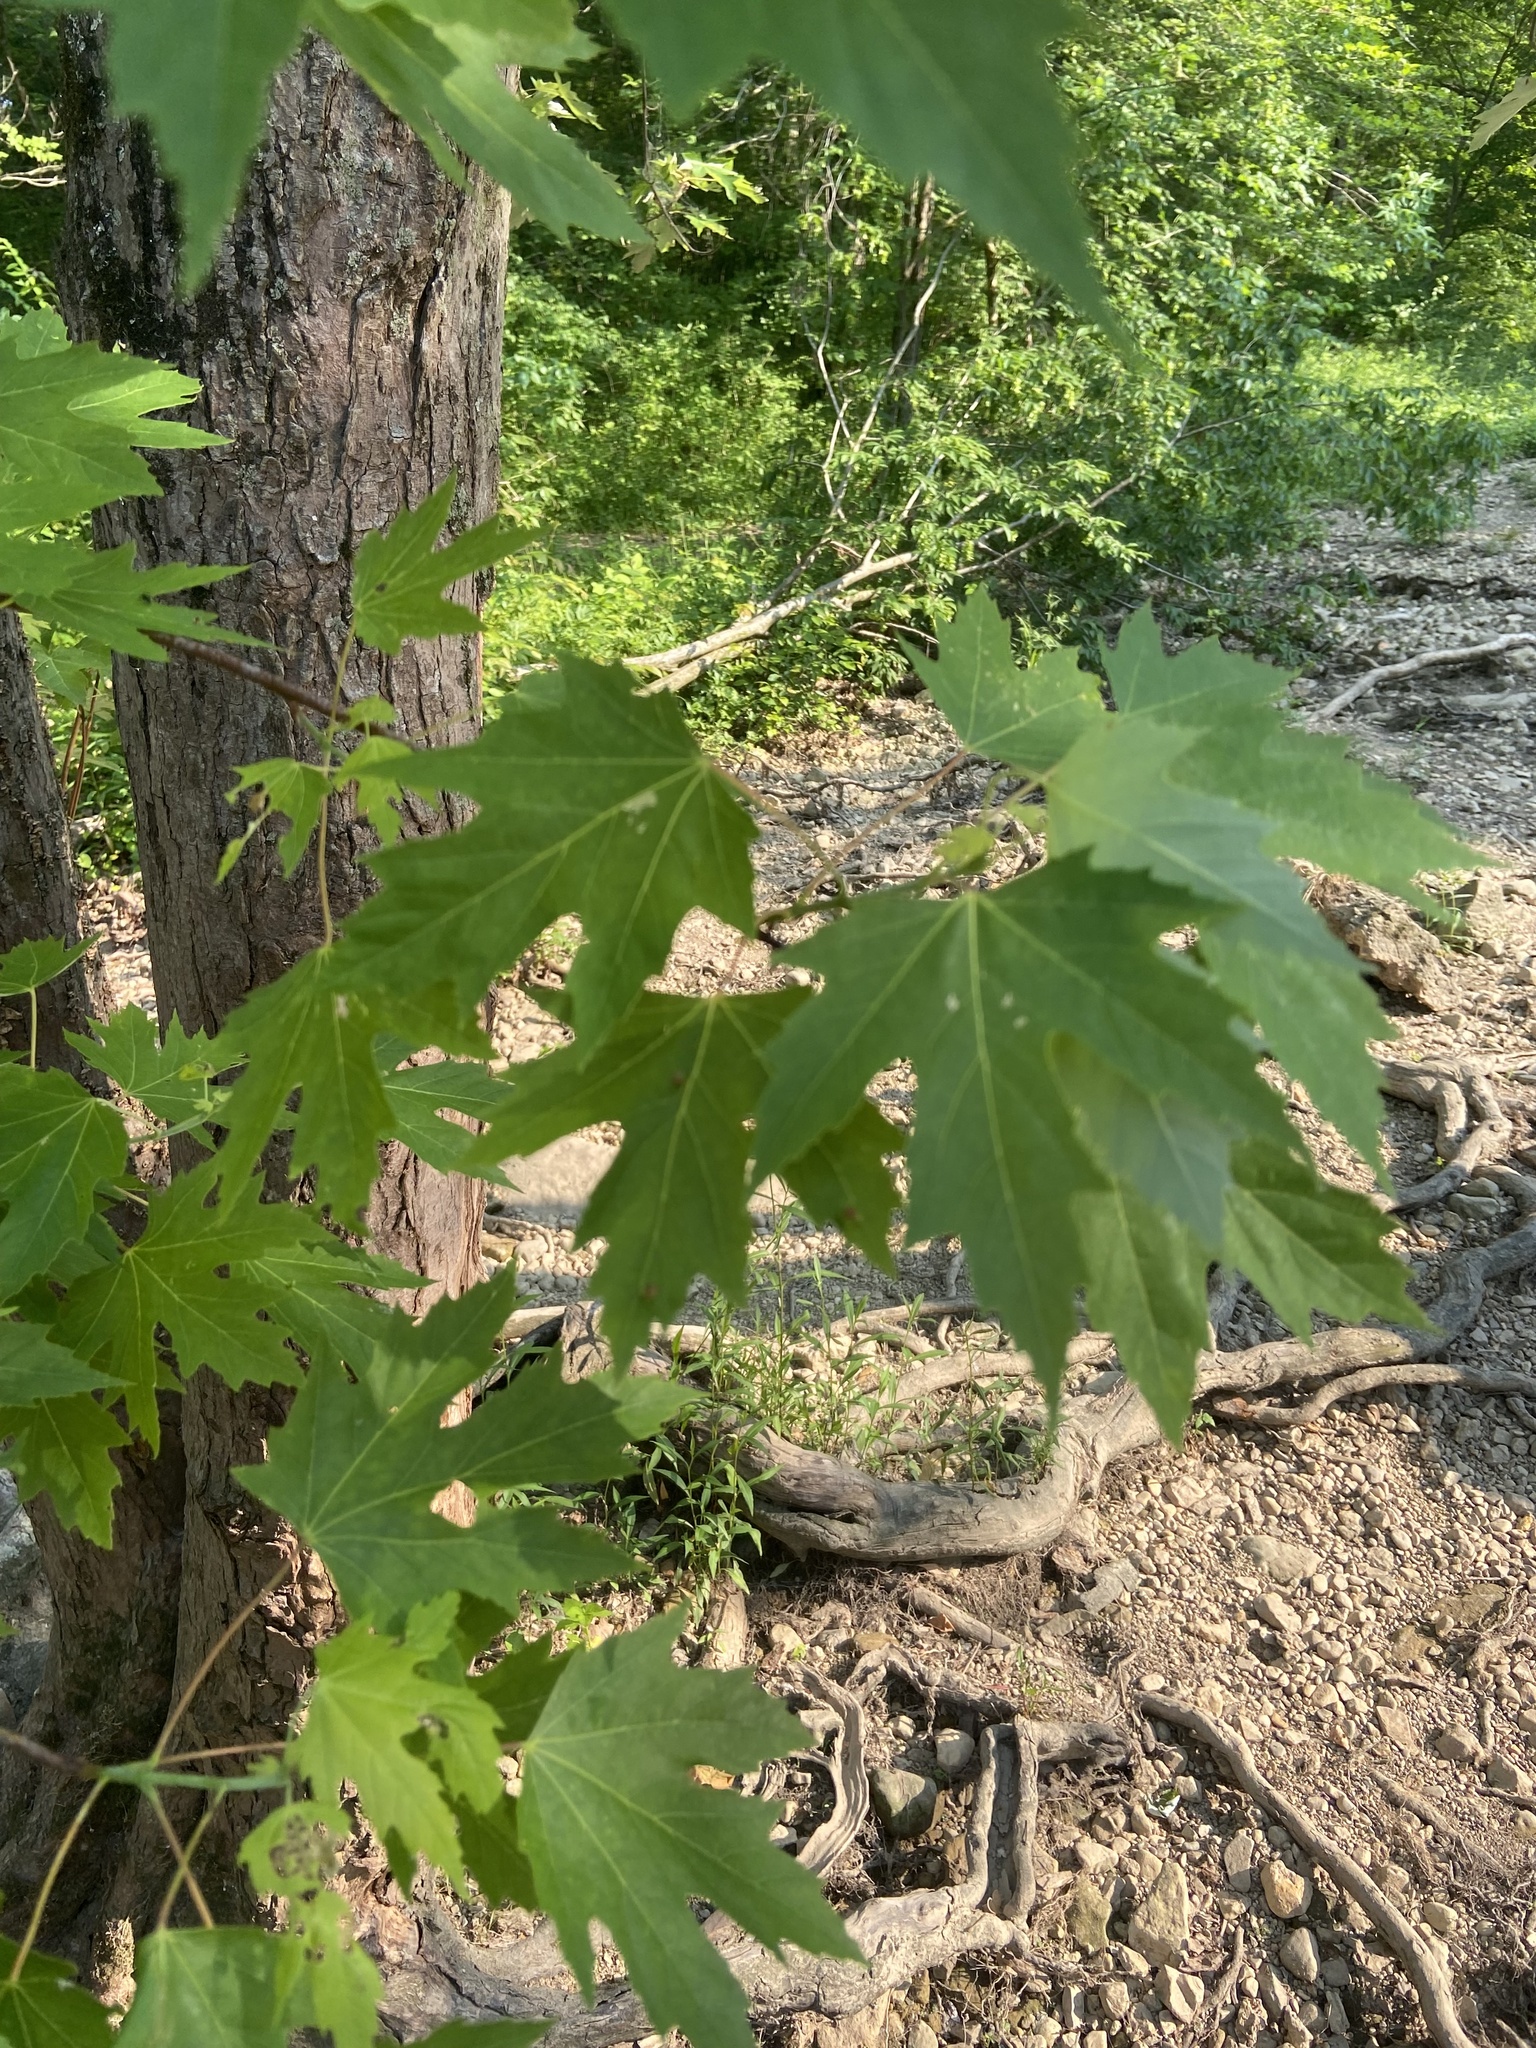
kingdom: Animalia
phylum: Arthropoda
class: Arachnida
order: Trombidiformes
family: Eriophyidae
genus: Vasates
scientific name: Vasates quadripedes
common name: Maple bladder gall mite
